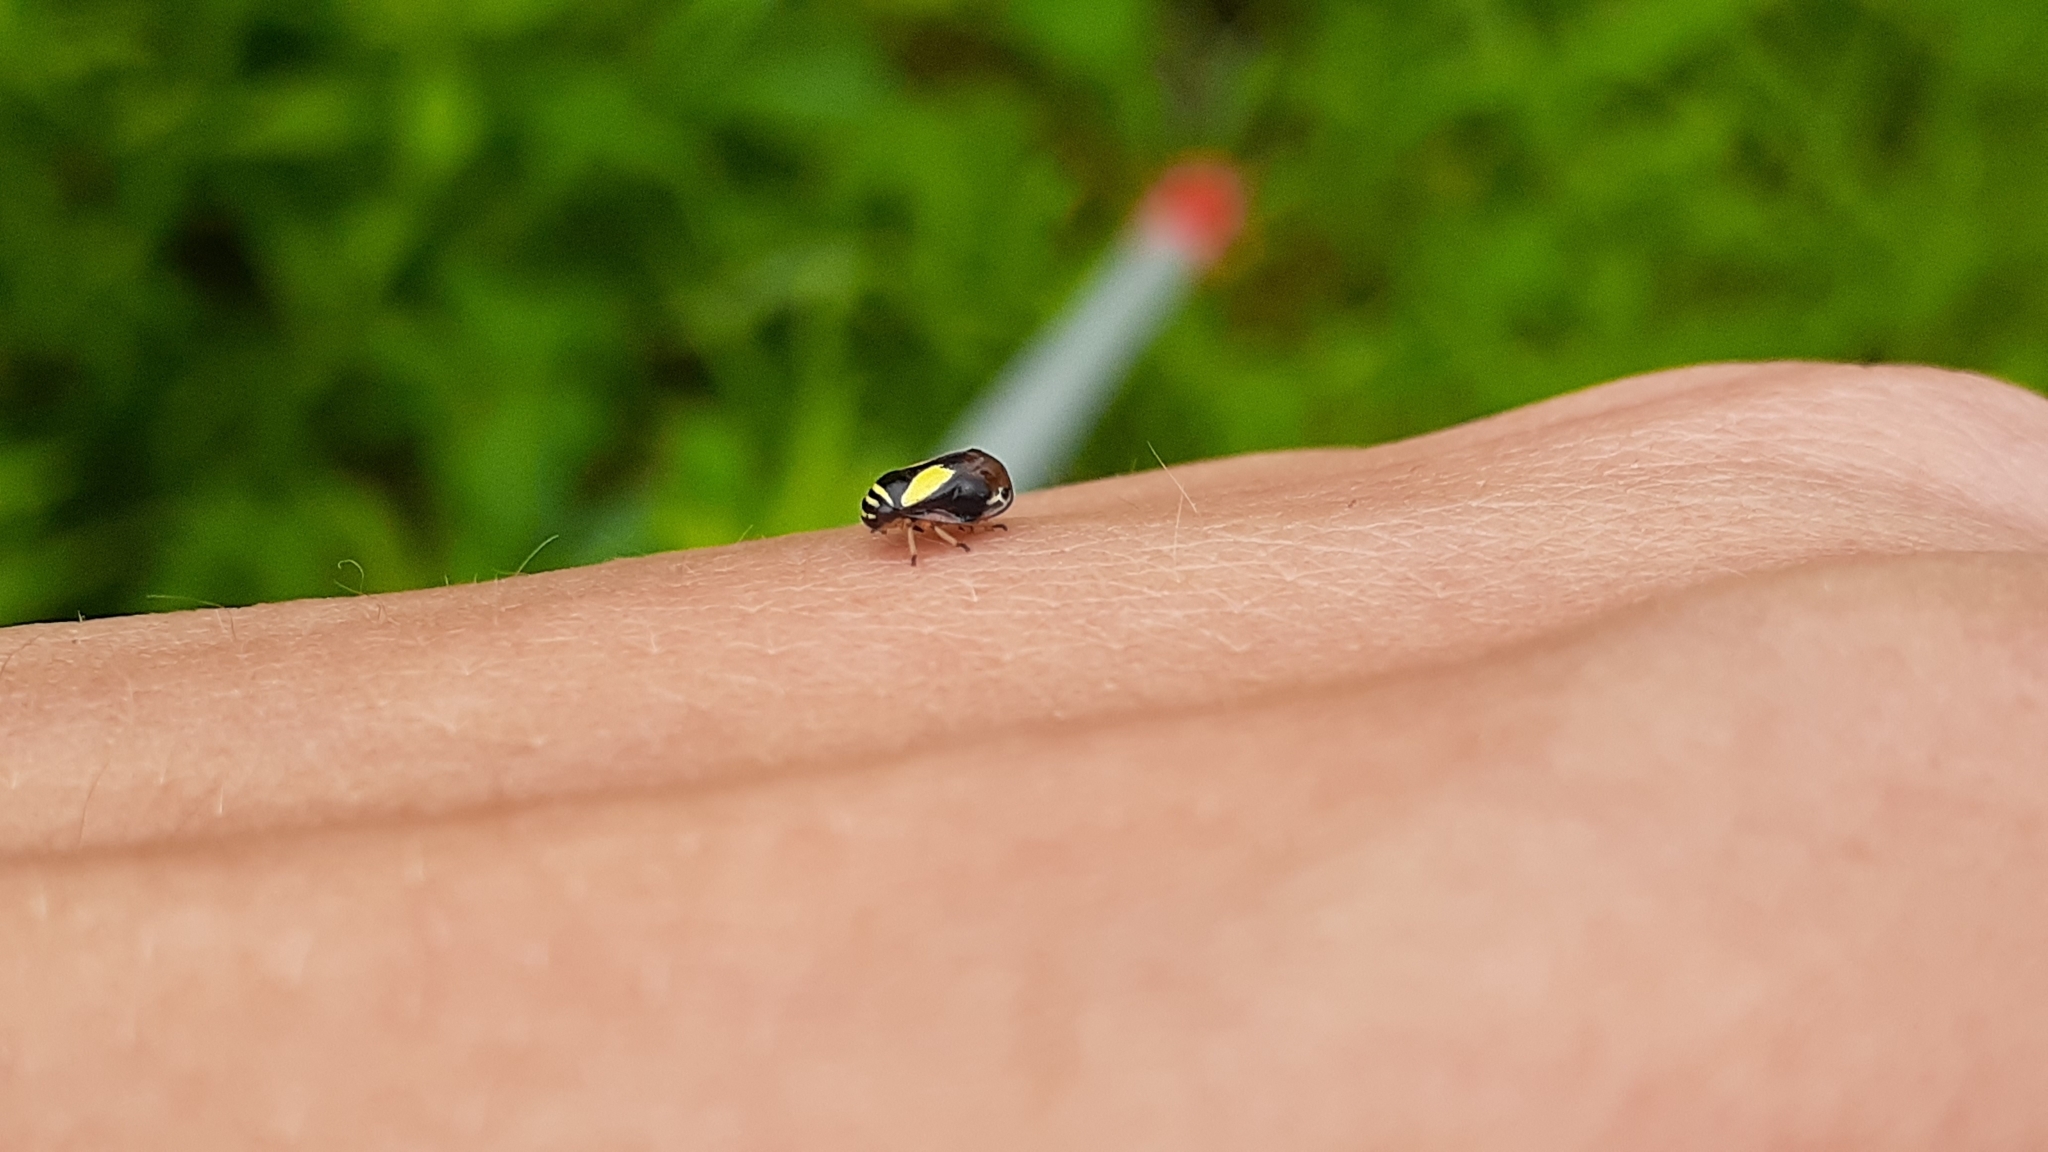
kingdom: Animalia
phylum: Arthropoda
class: Insecta
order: Hemiptera
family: Clastopteridae
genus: Clastoptera
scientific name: Clastoptera proteus
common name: Dogwood spittlebug
